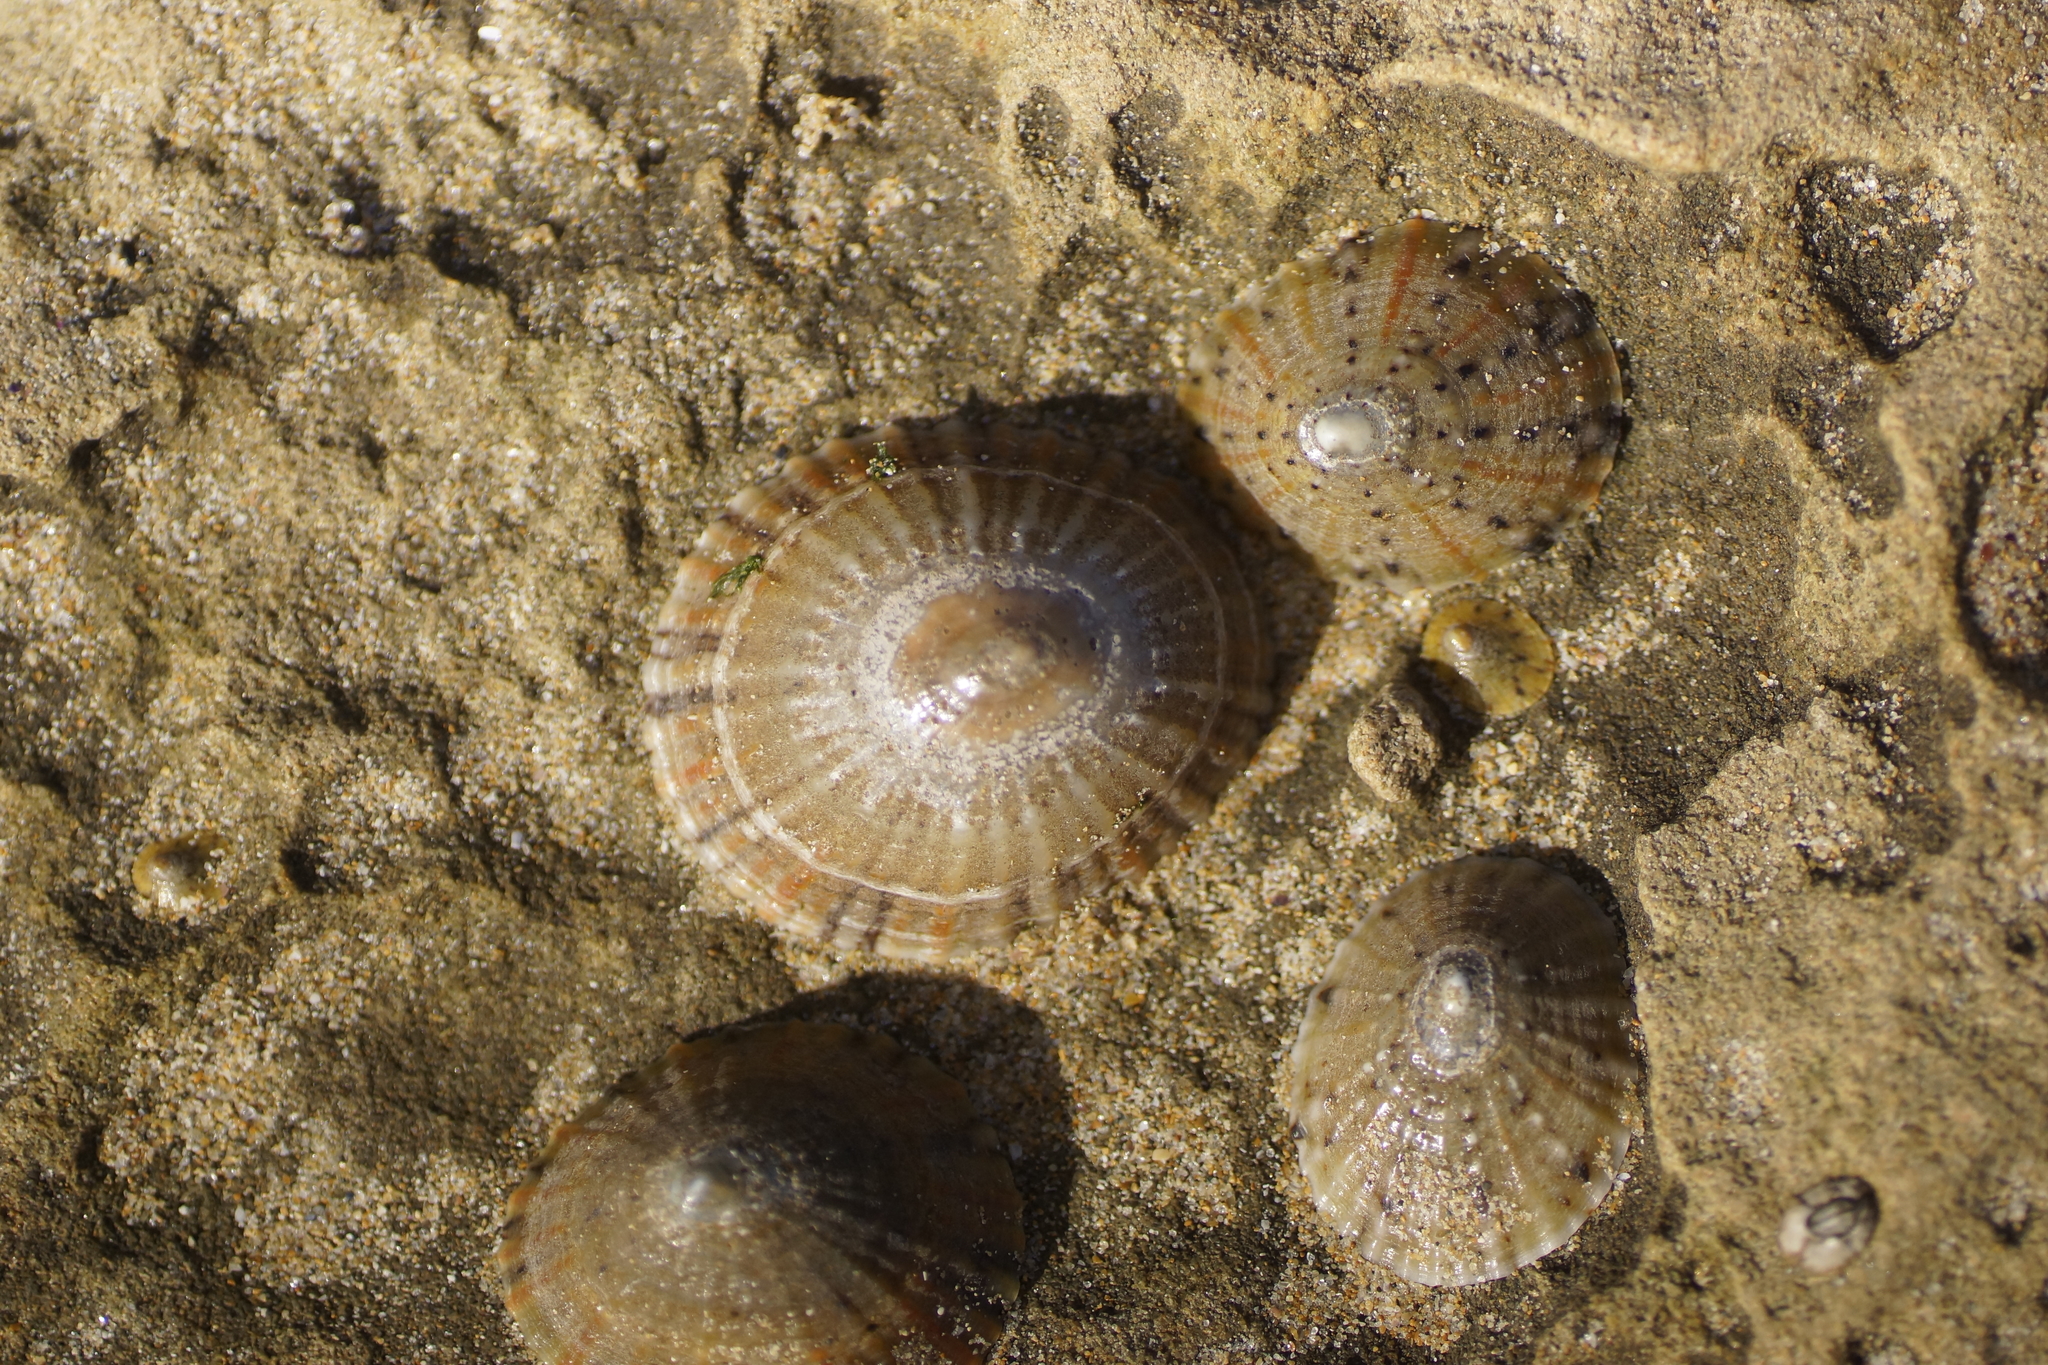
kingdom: Animalia
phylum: Mollusca
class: Gastropoda
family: Nacellidae
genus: Cellana
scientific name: Cellana tramoserica
